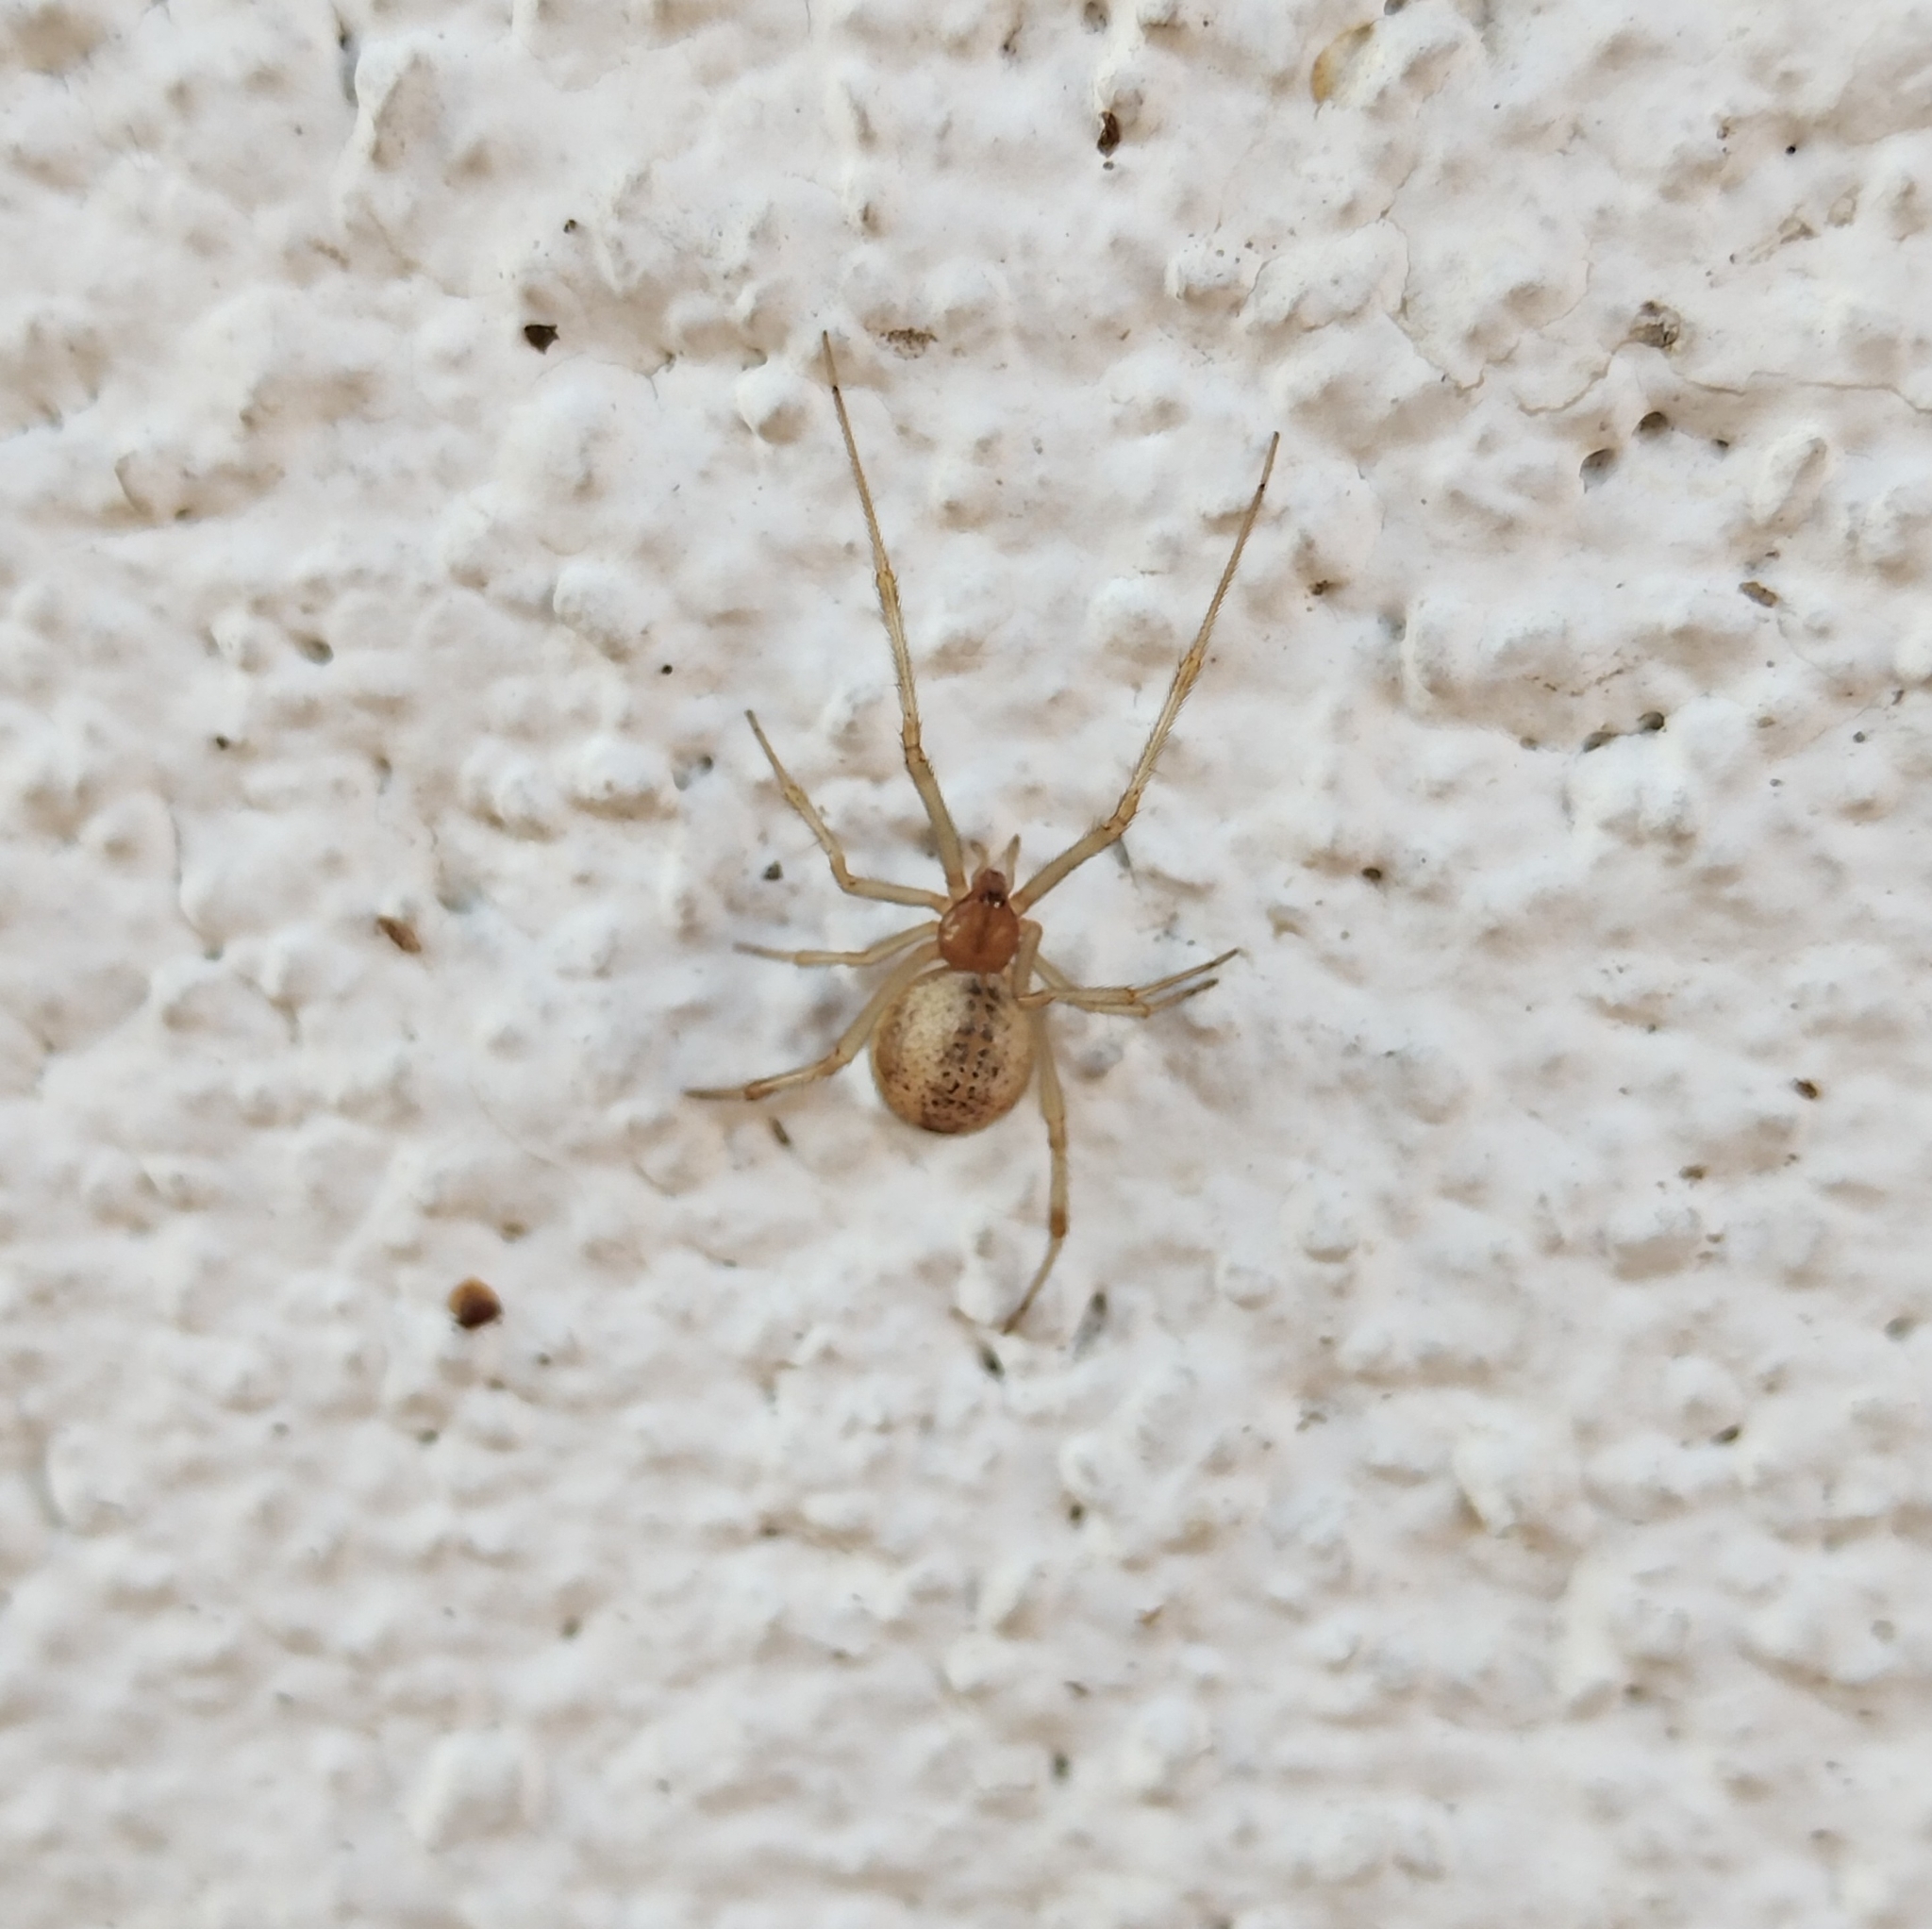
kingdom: Animalia
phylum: Arthropoda
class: Arachnida
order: Araneae
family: Theridiidae
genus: Parasteatoda
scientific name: Parasteatoda tepidariorum
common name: Common house spider
